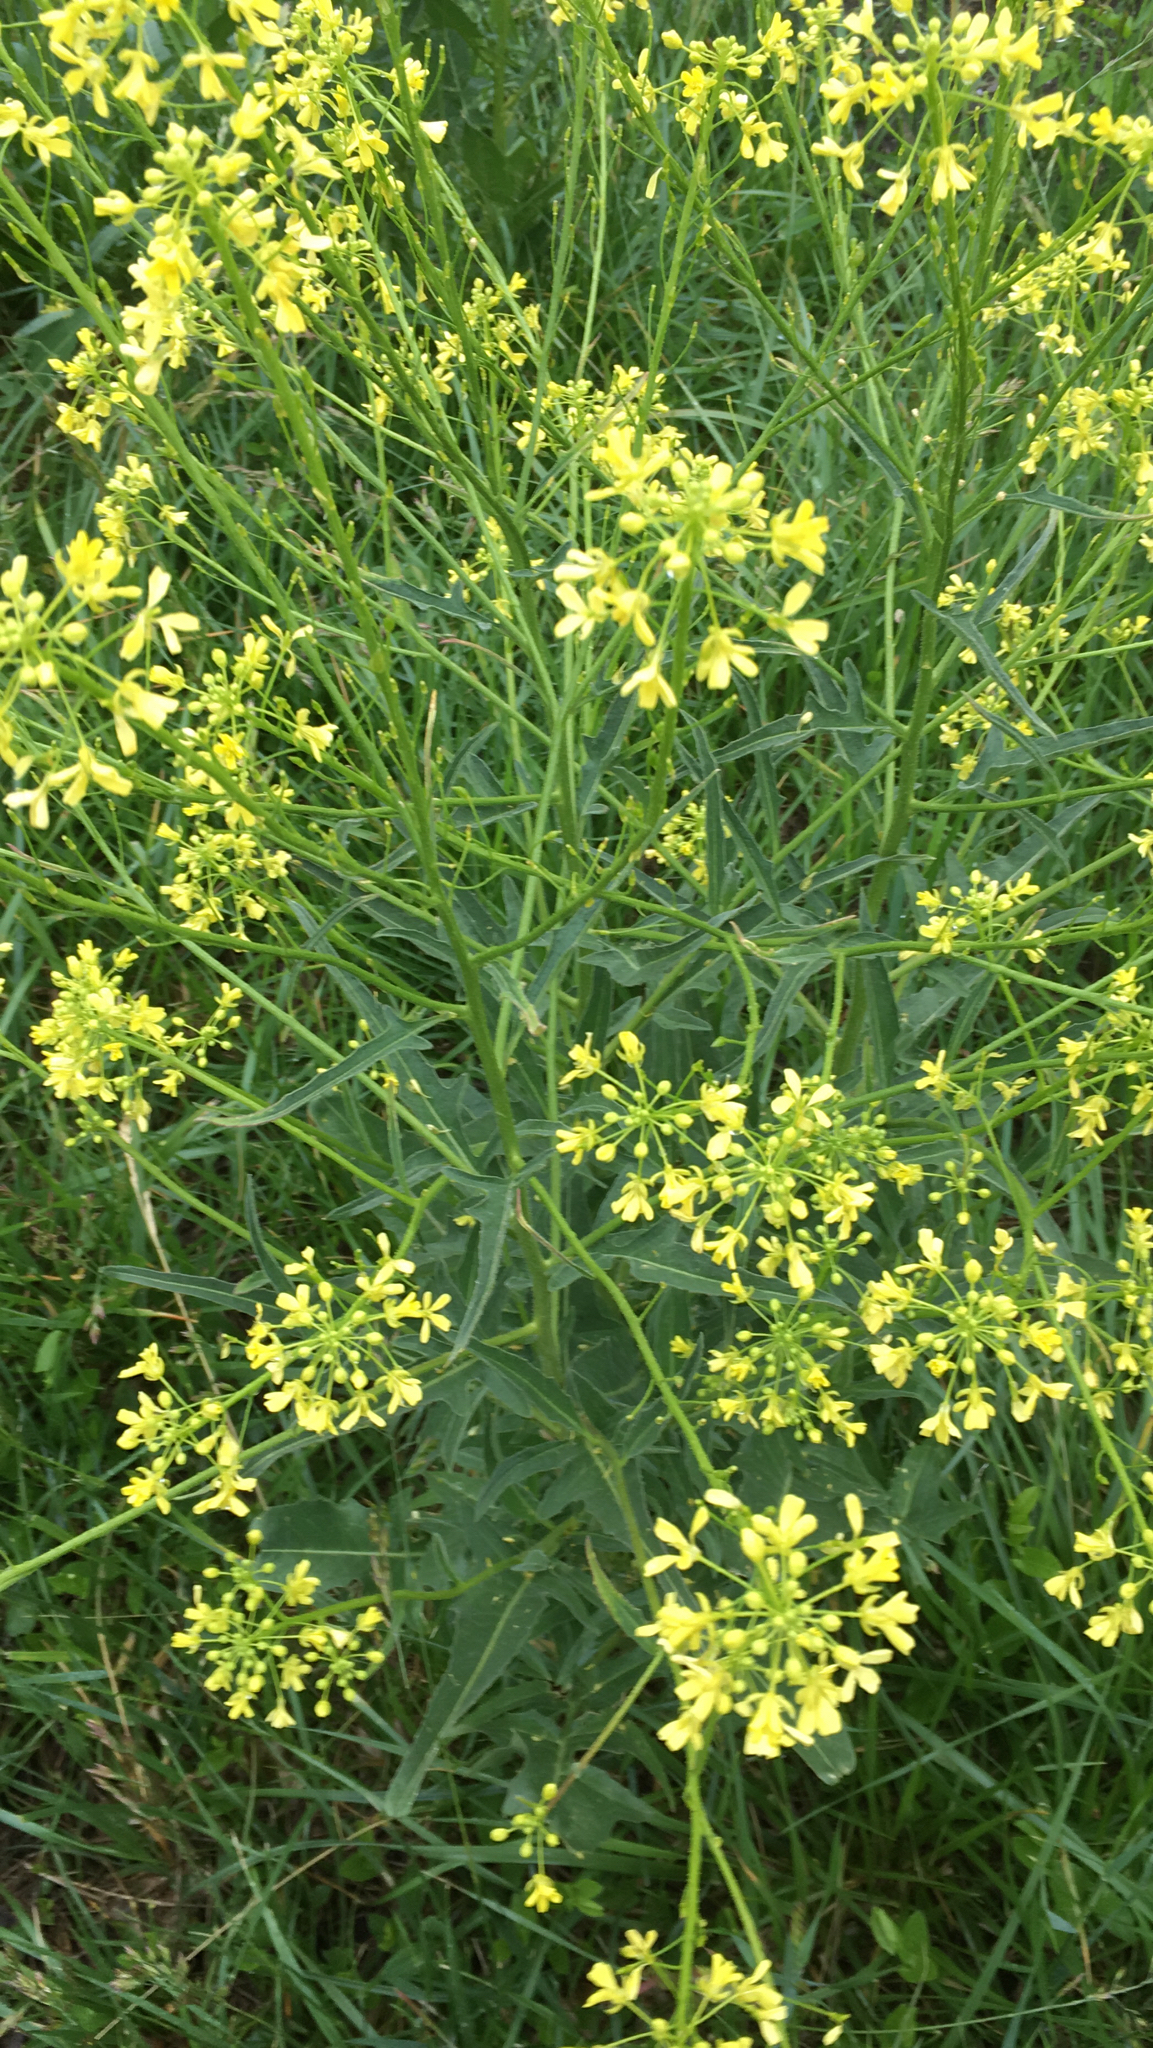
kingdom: Plantae
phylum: Tracheophyta
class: Magnoliopsida
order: Brassicales
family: Brassicaceae
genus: Bunias
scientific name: Bunias orientalis
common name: Warty-cabbage
